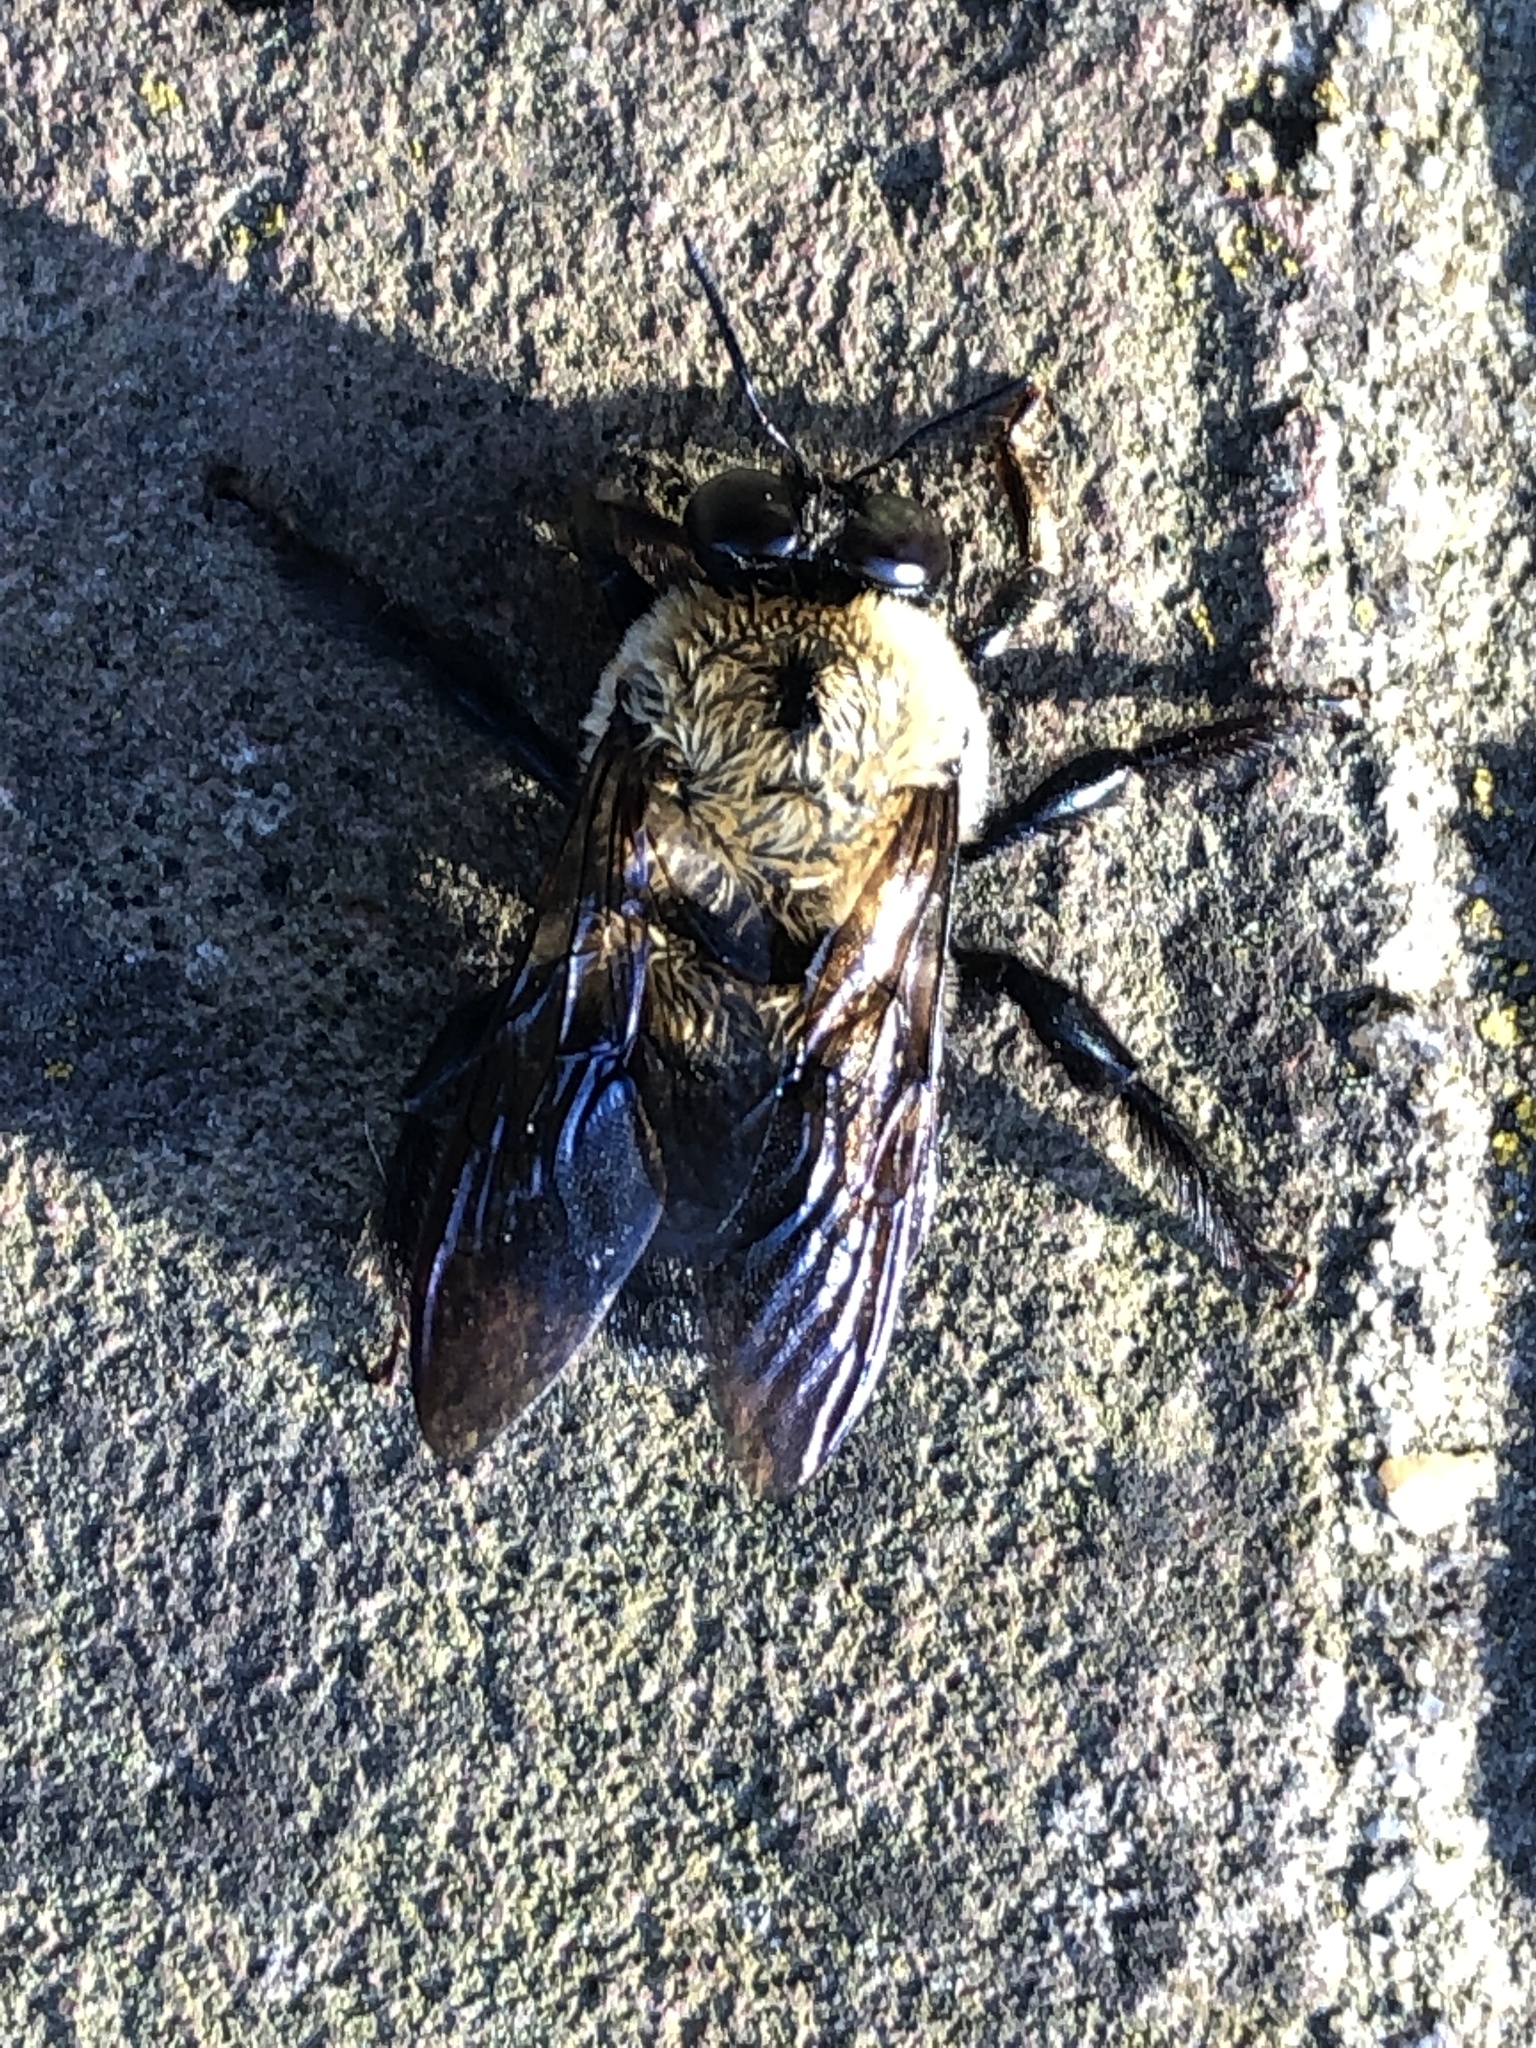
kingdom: Animalia
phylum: Arthropoda
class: Insecta
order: Hymenoptera
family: Apidae
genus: Xylocopa
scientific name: Xylocopa virginica
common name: Carpenter bee
